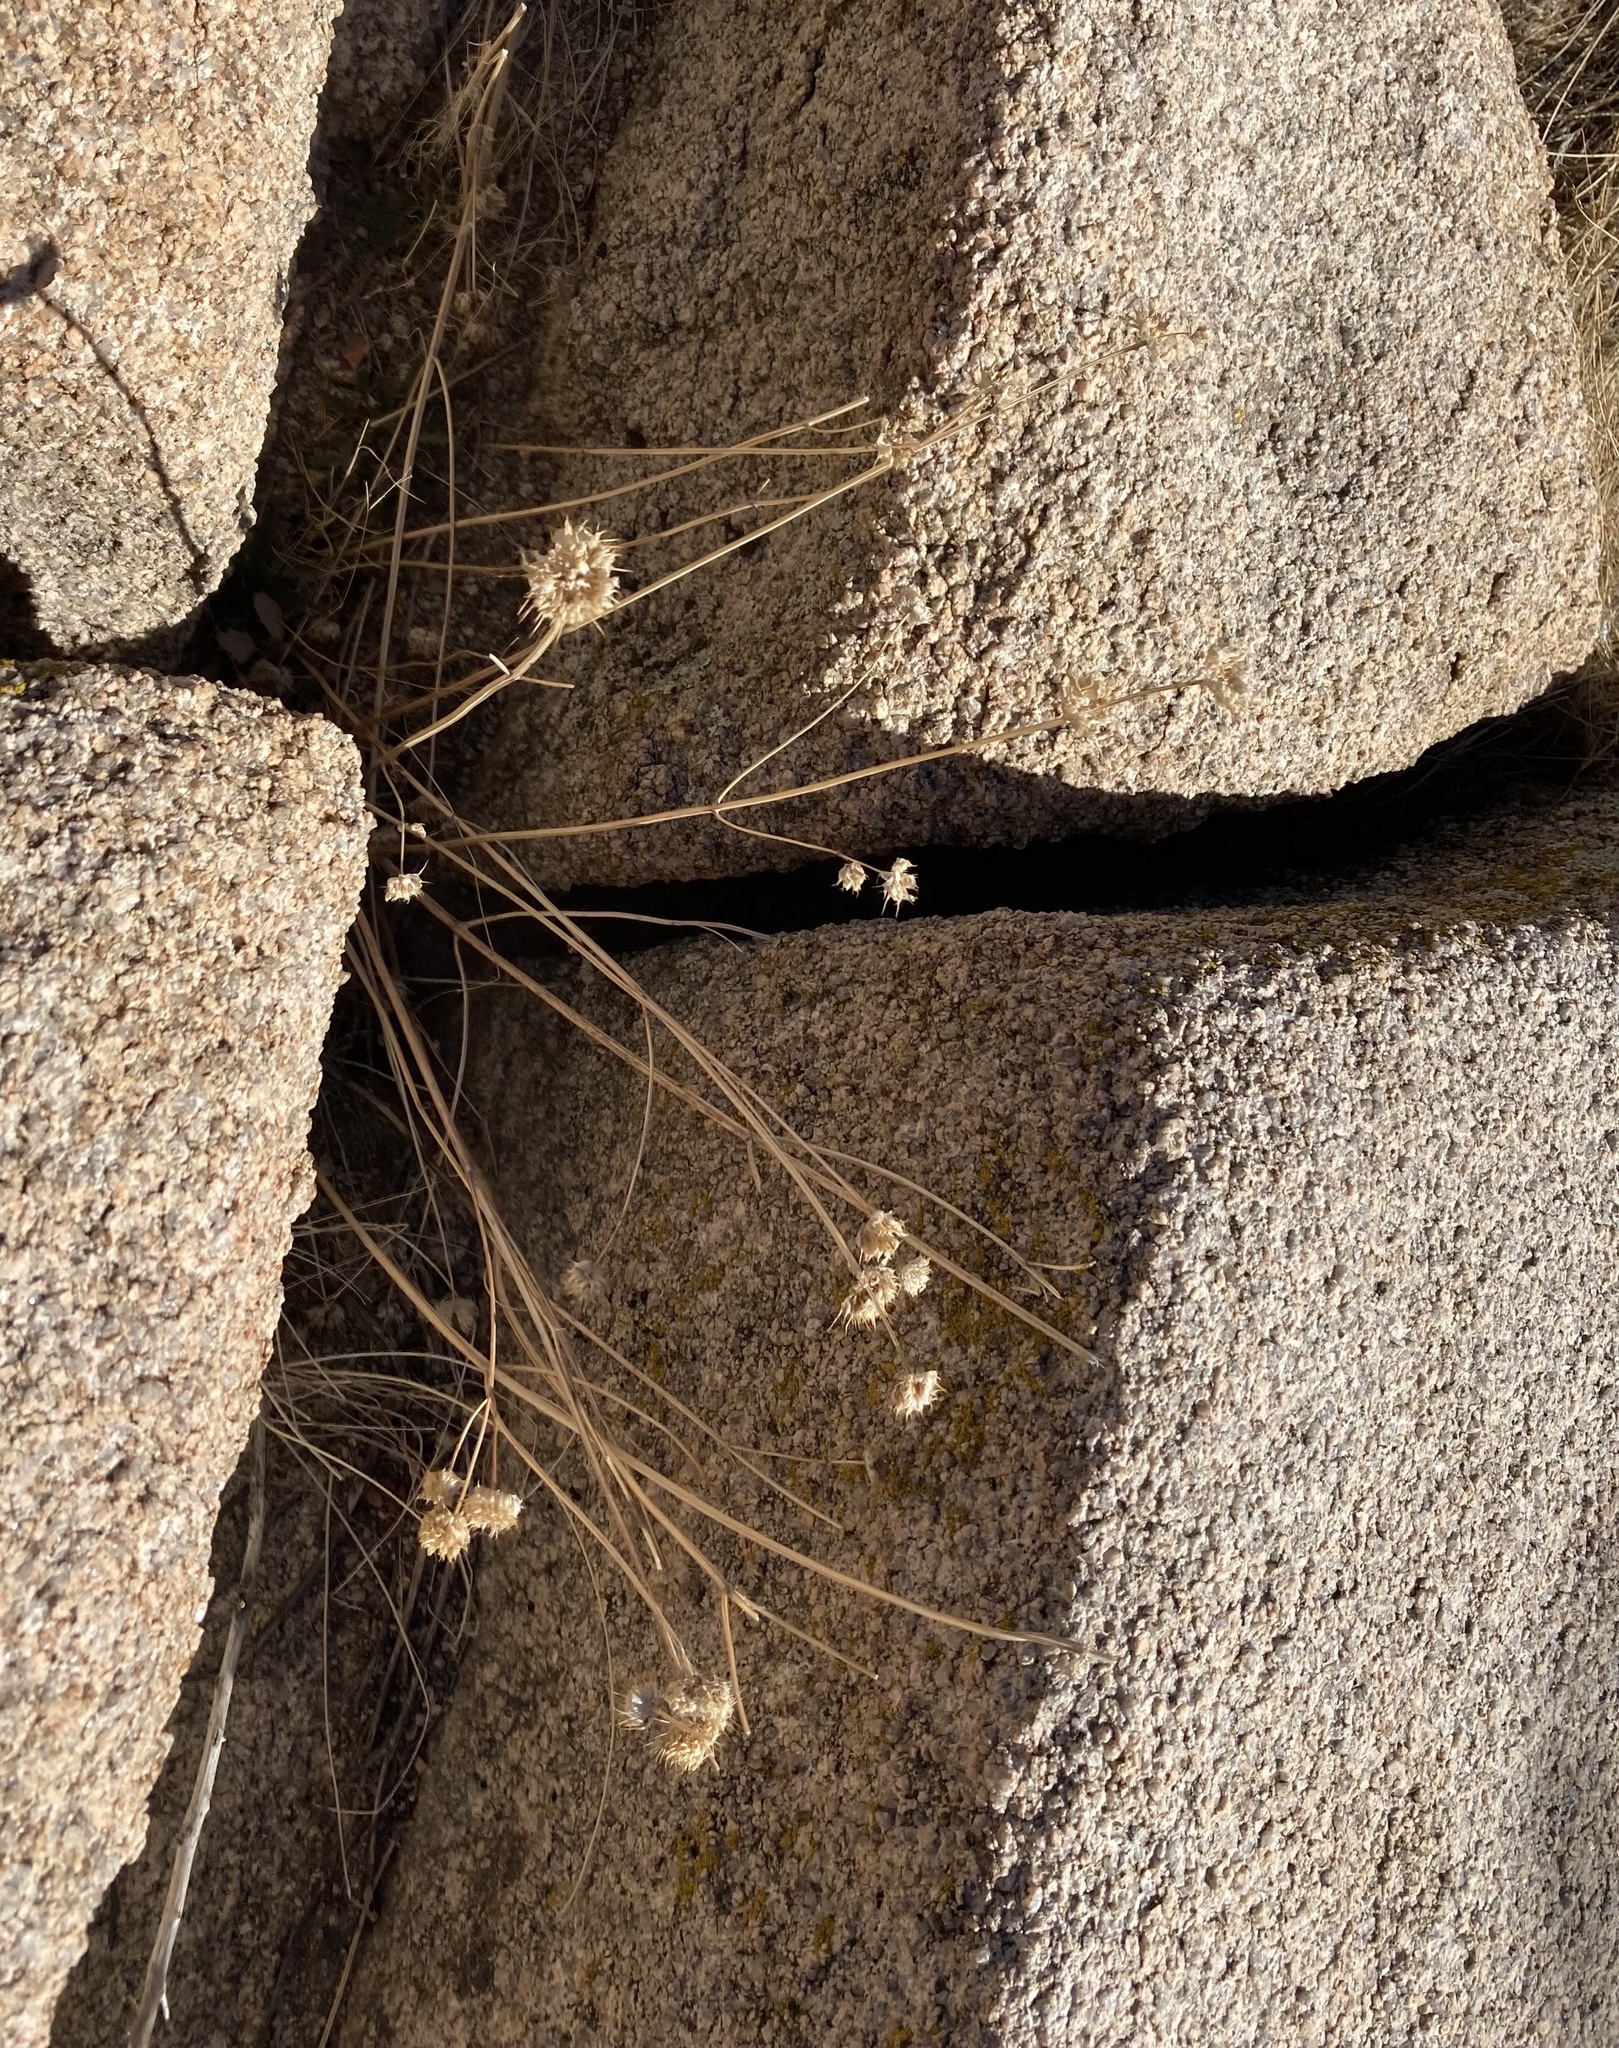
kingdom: Plantae
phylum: Tracheophyta
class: Magnoliopsida
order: Lamiales
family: Lamiaceae
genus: Salvia
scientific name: Salvia columbariae
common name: Chia
